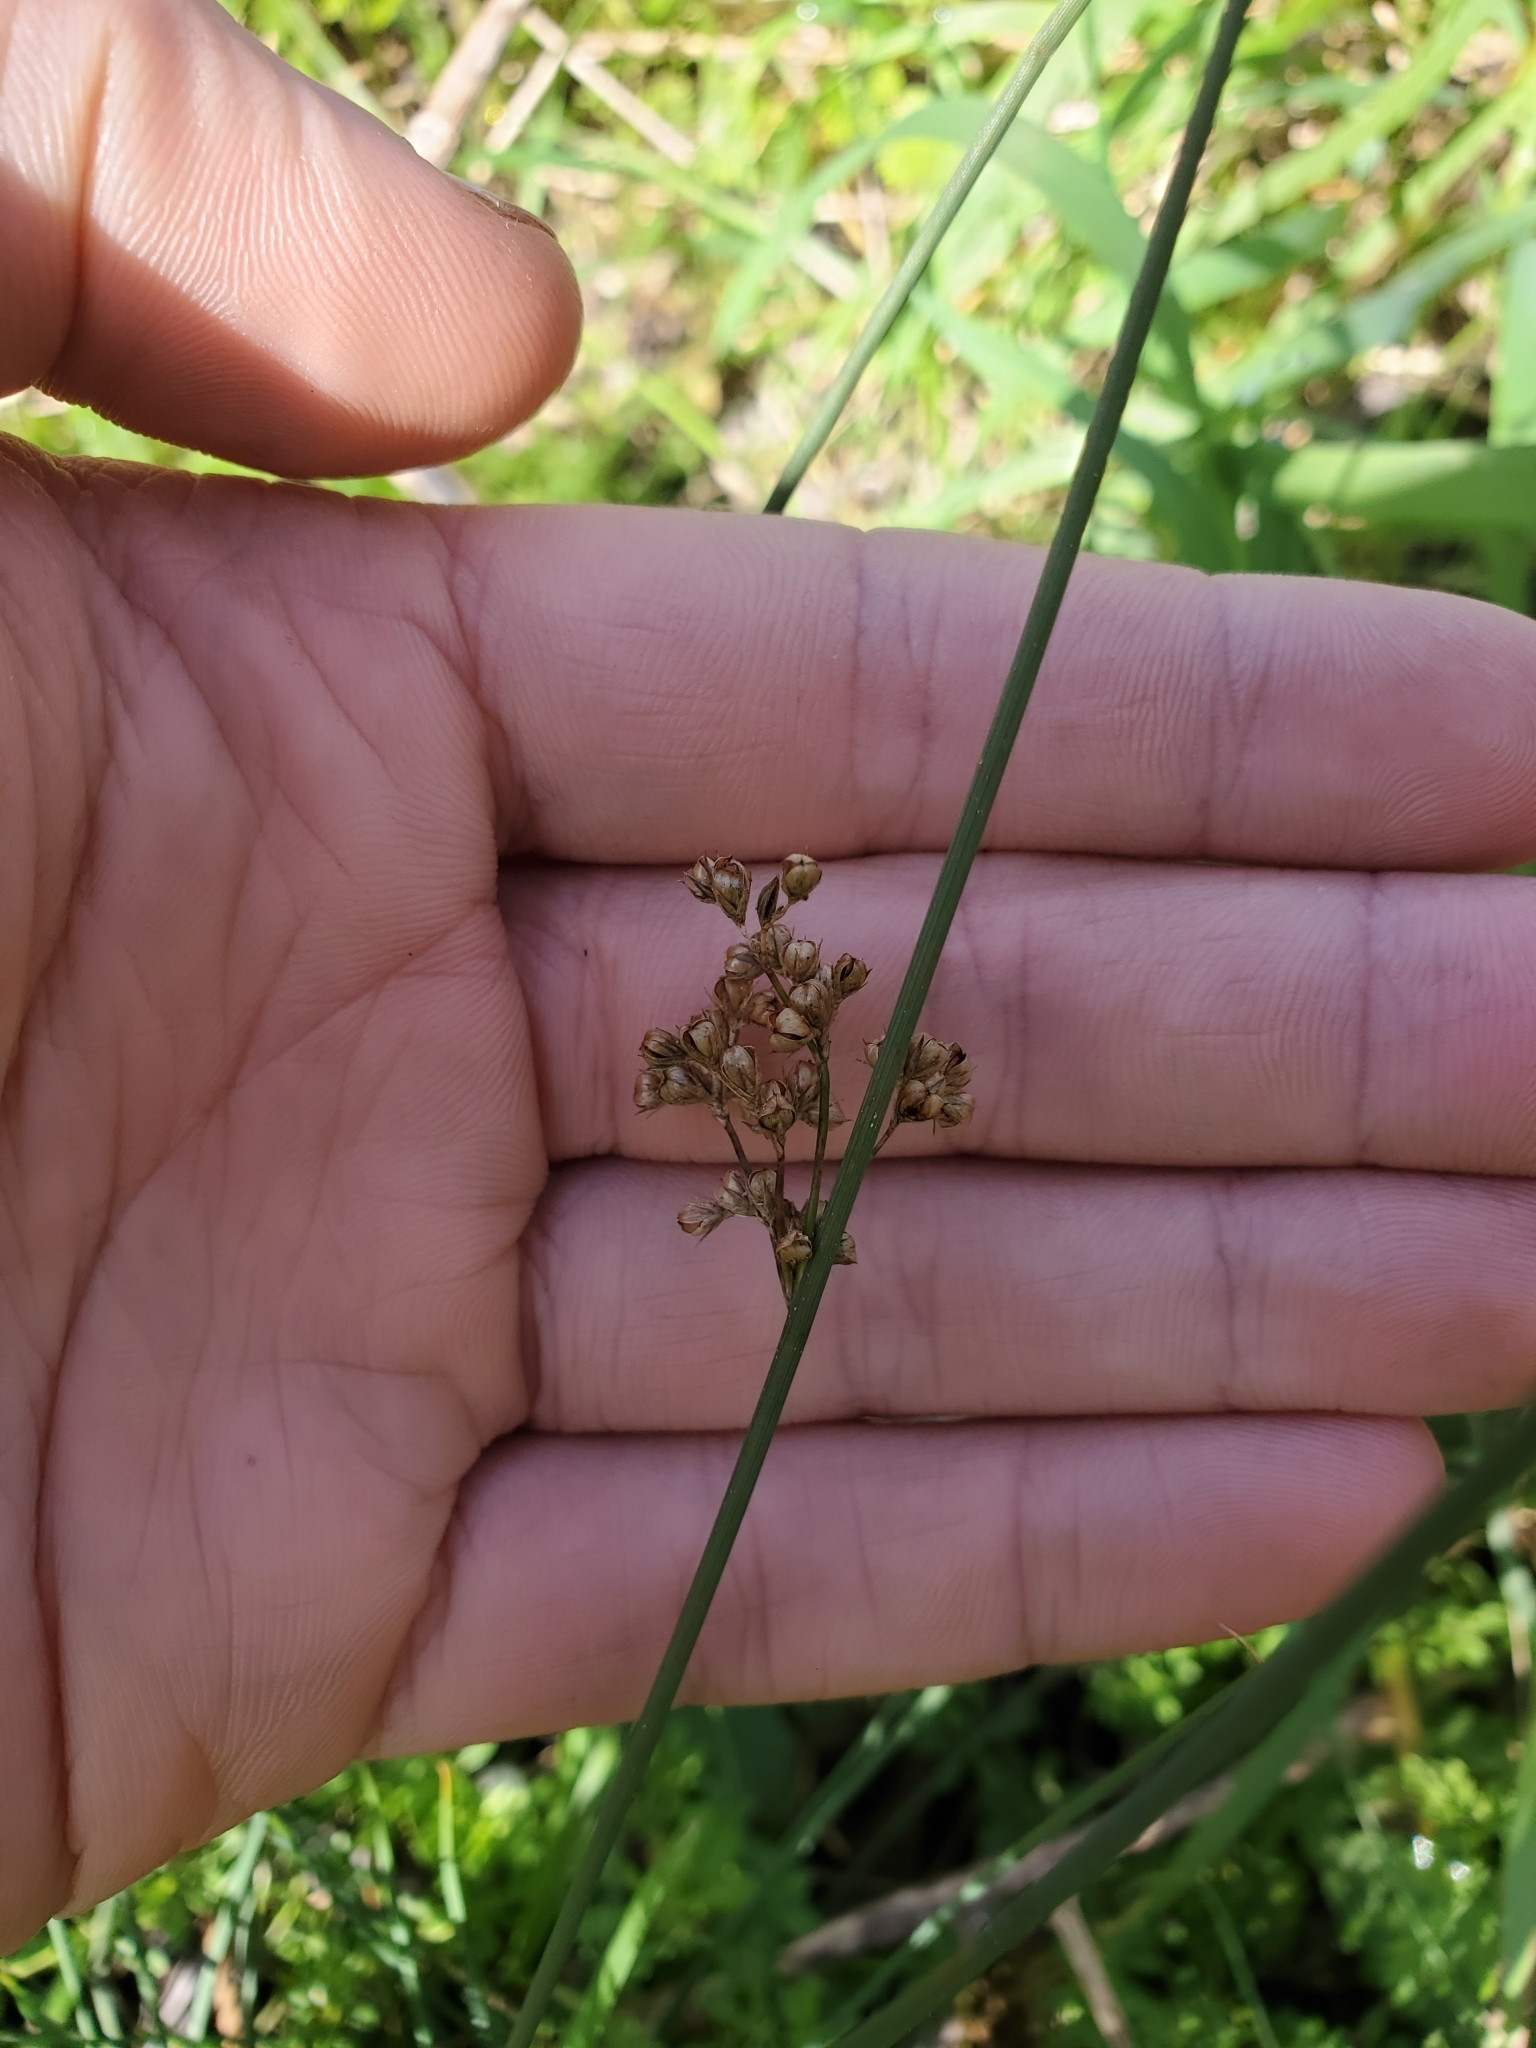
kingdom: Plantae
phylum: Tracheophyta
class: Liliopsida
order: Poales
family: Juncaceae
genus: Juncus
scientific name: Juncus patens
